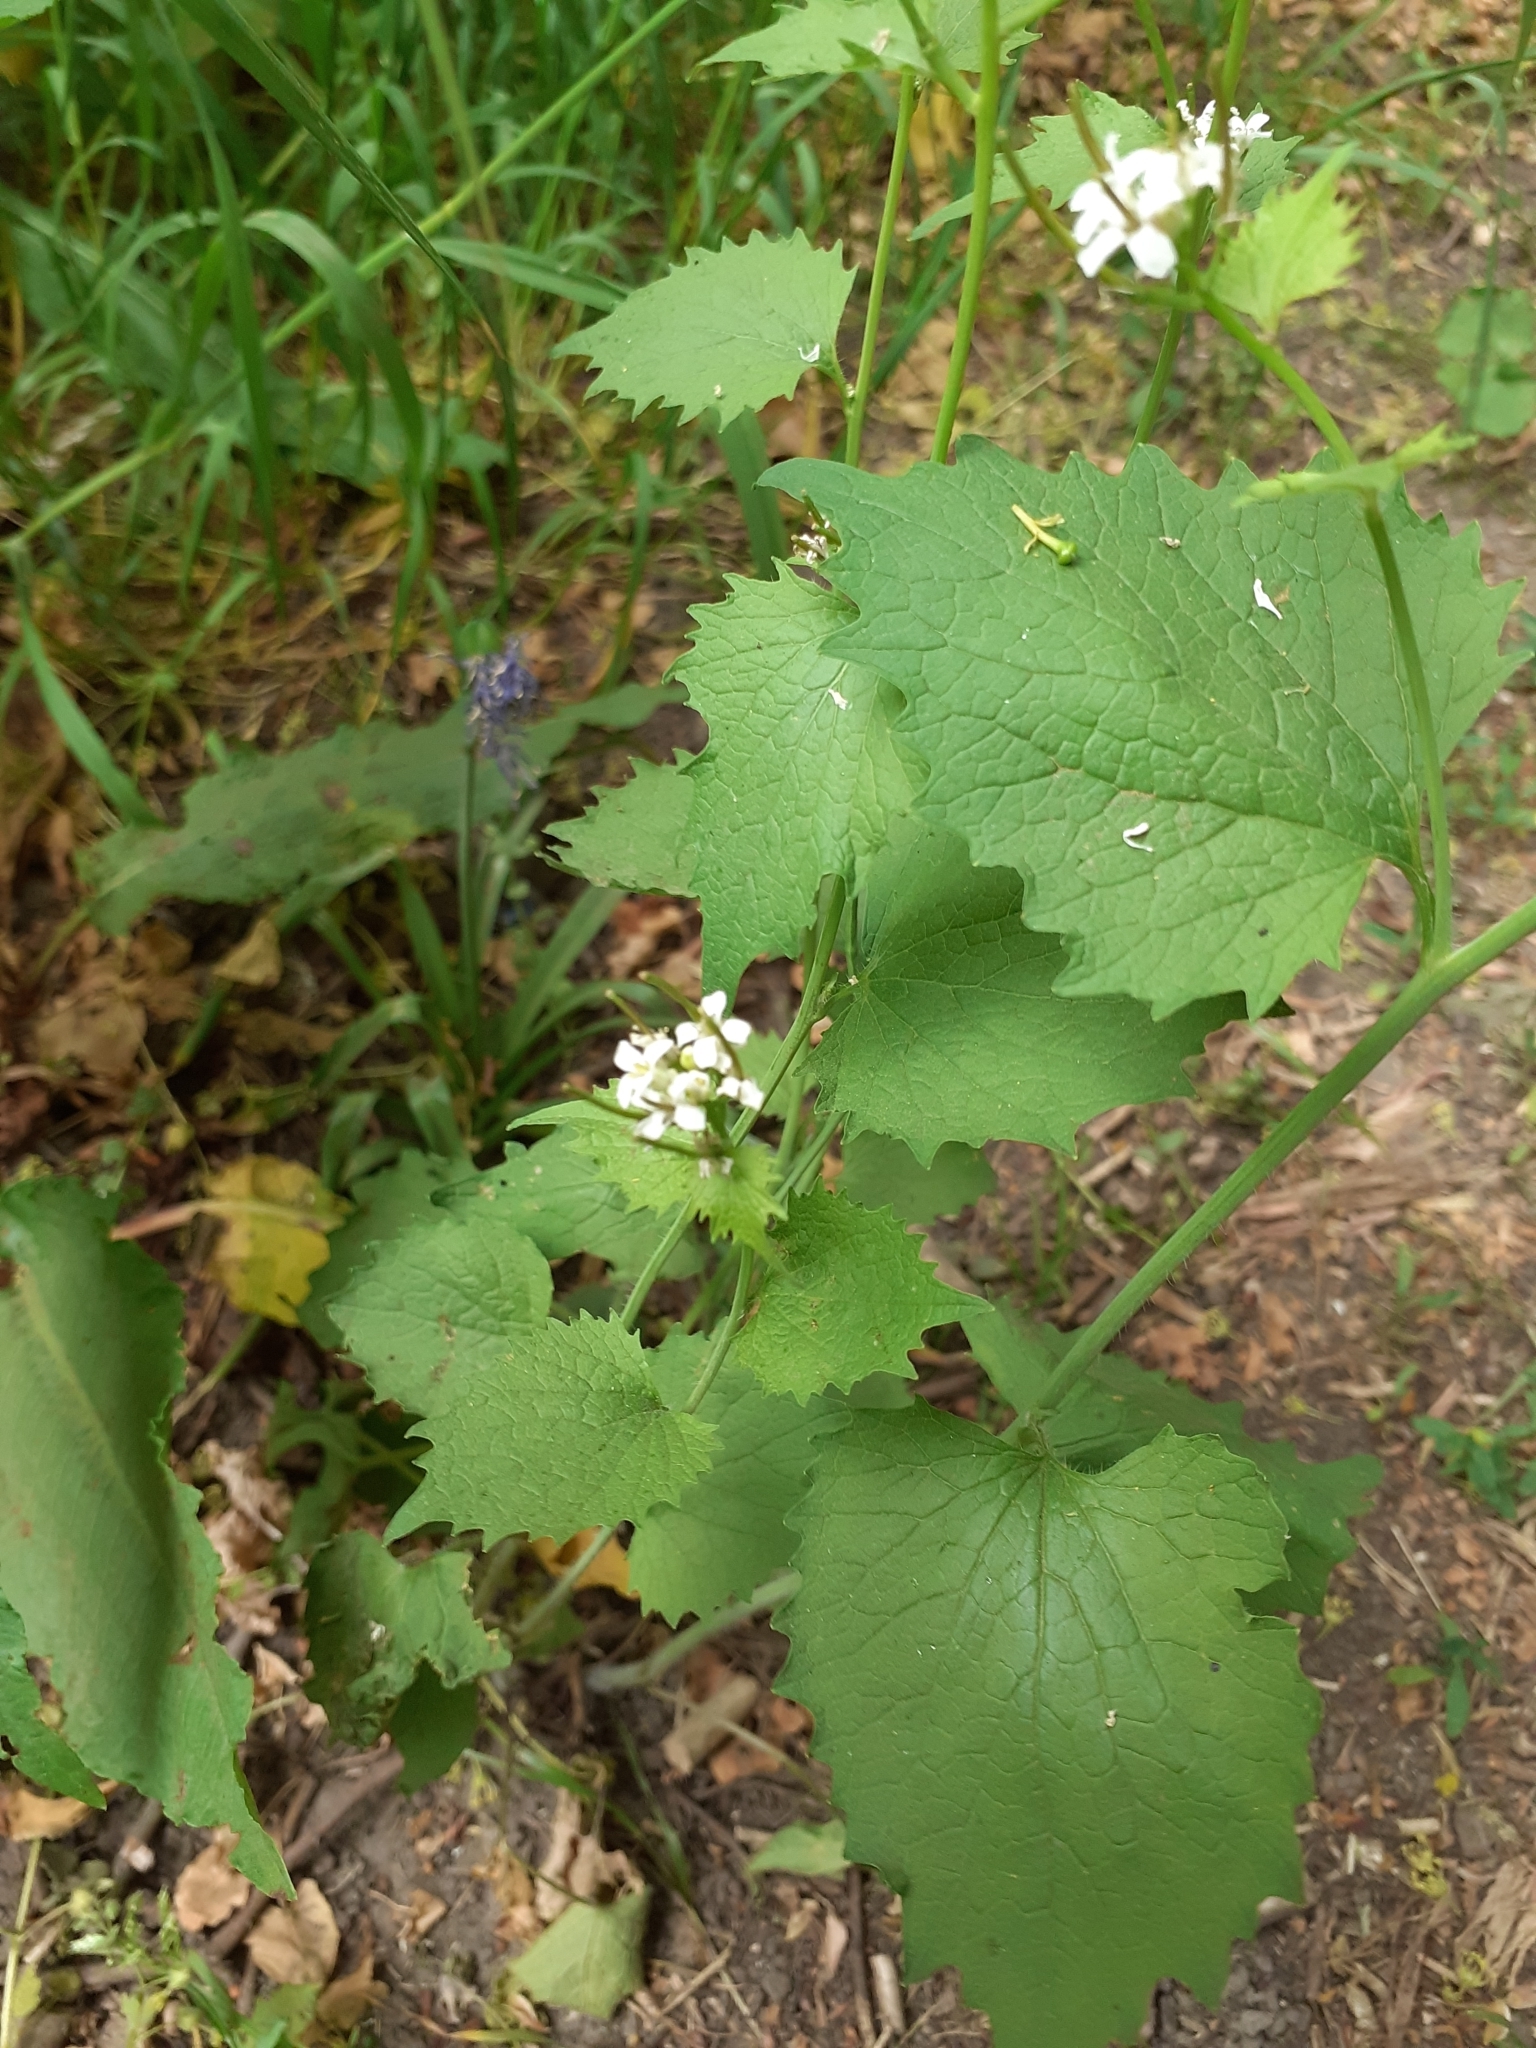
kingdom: Plantae
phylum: Tracheophyta
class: Magnoliopsida
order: Brassicales
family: Brassicaceae
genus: Alliaria
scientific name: Alliaria petiolata
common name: Garlic mustard
